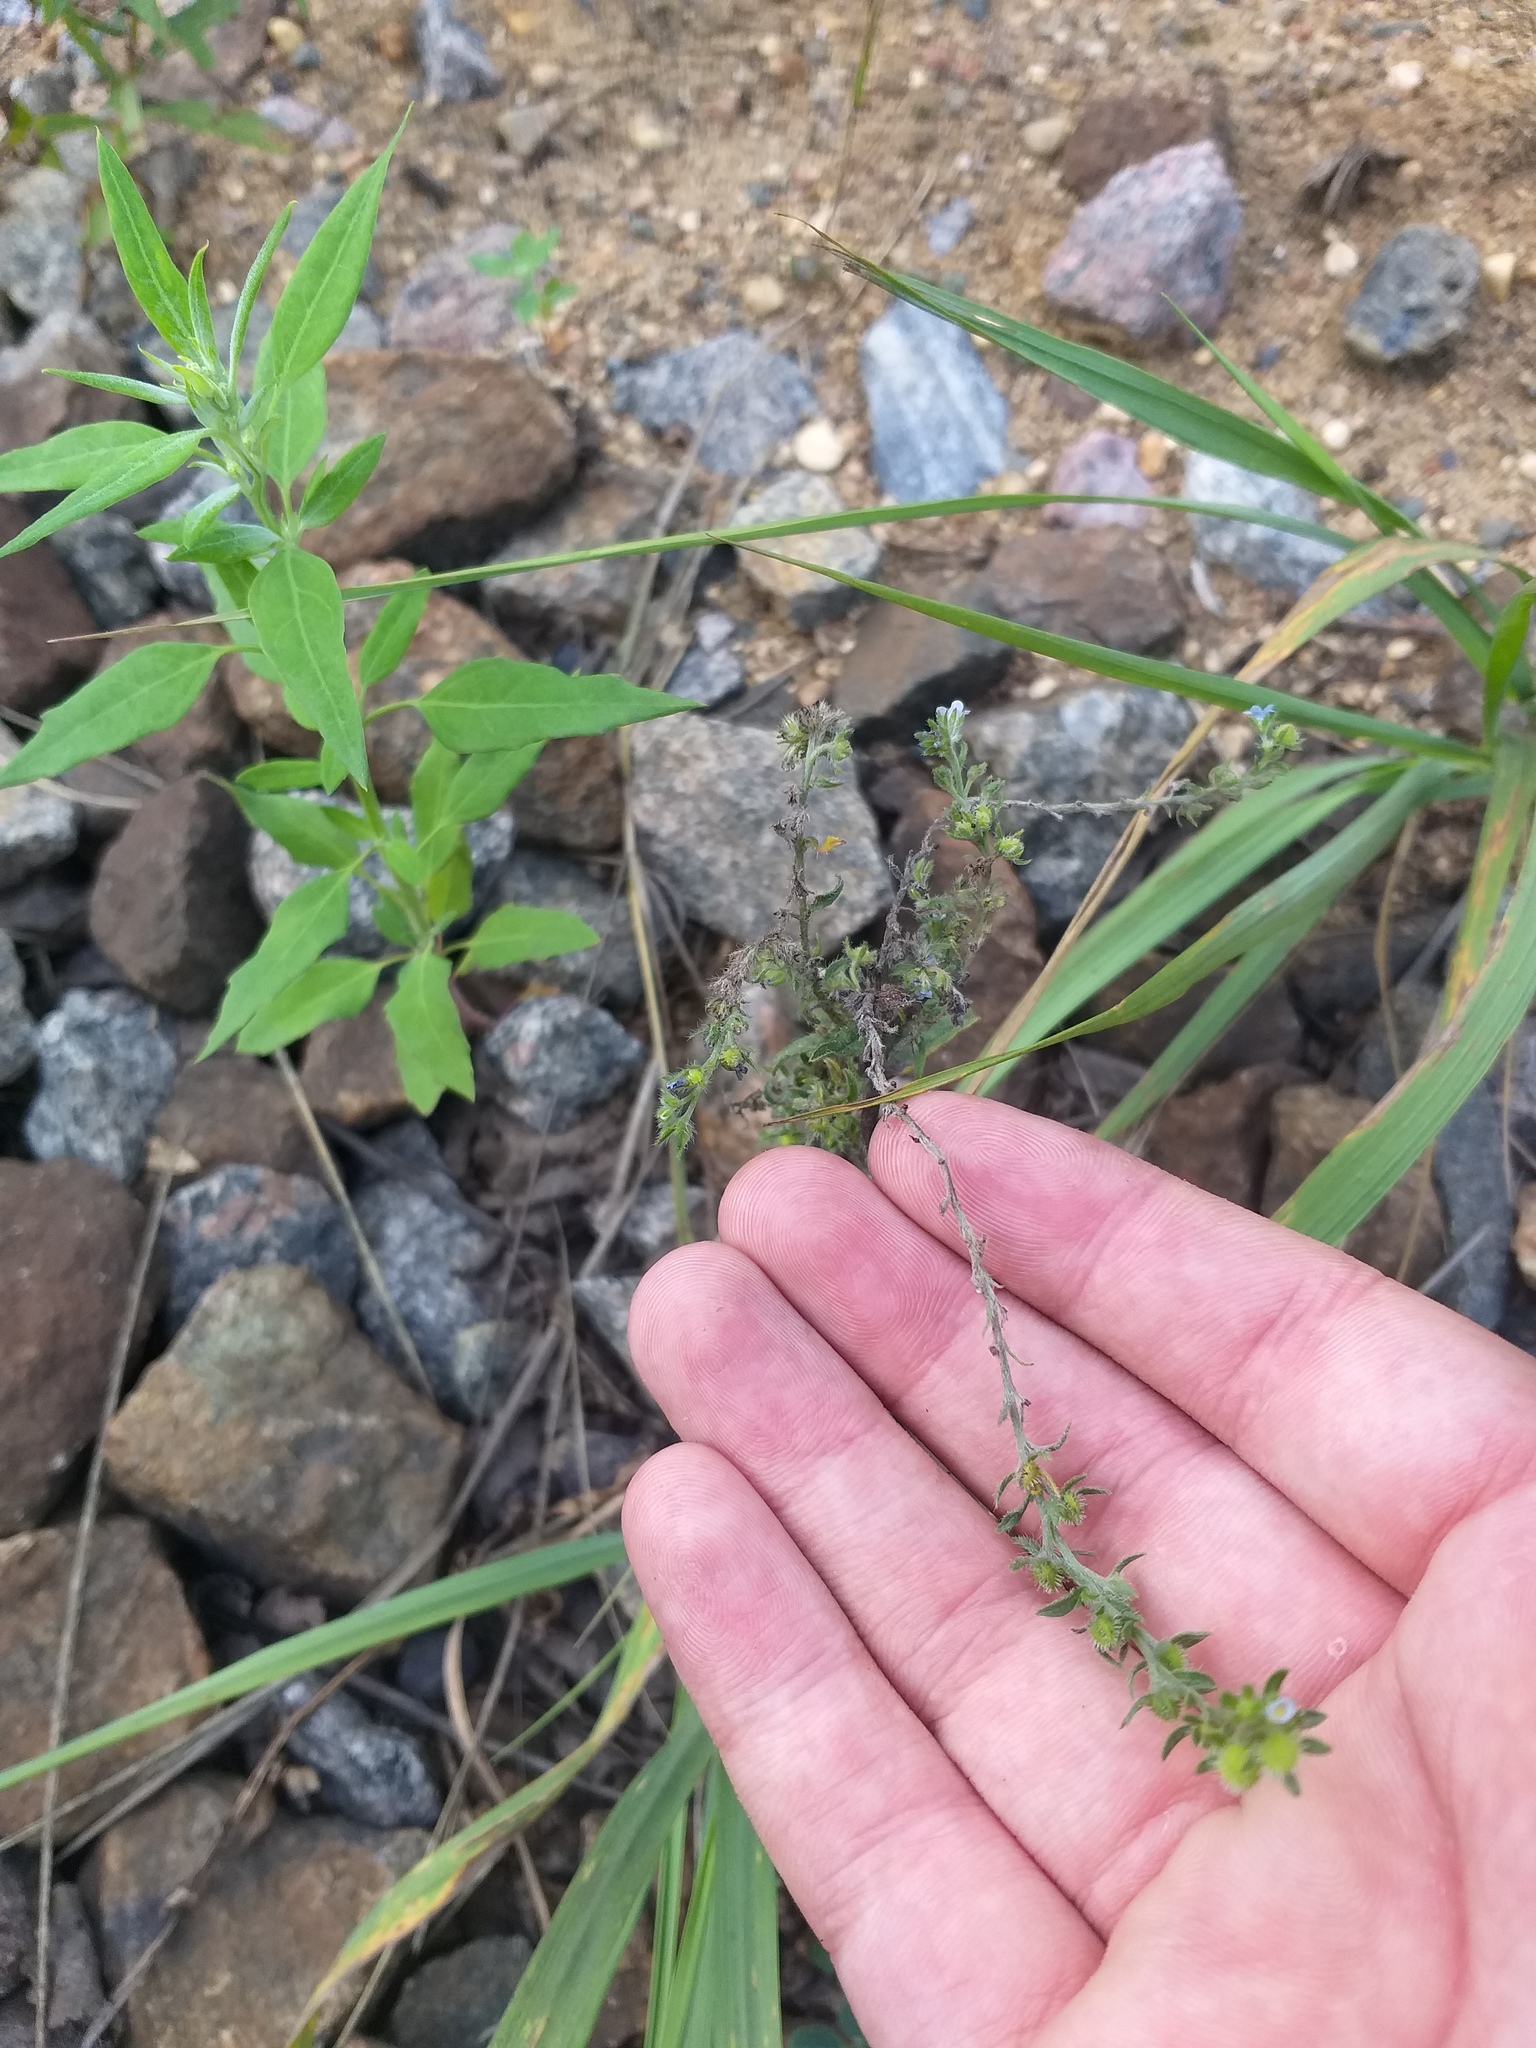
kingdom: Plantae
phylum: Tracheophyta
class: Magnoliopsida
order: Boraginales
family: Boraginaceae
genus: Lappula
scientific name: Lappula squarrosa
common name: European stickseed
